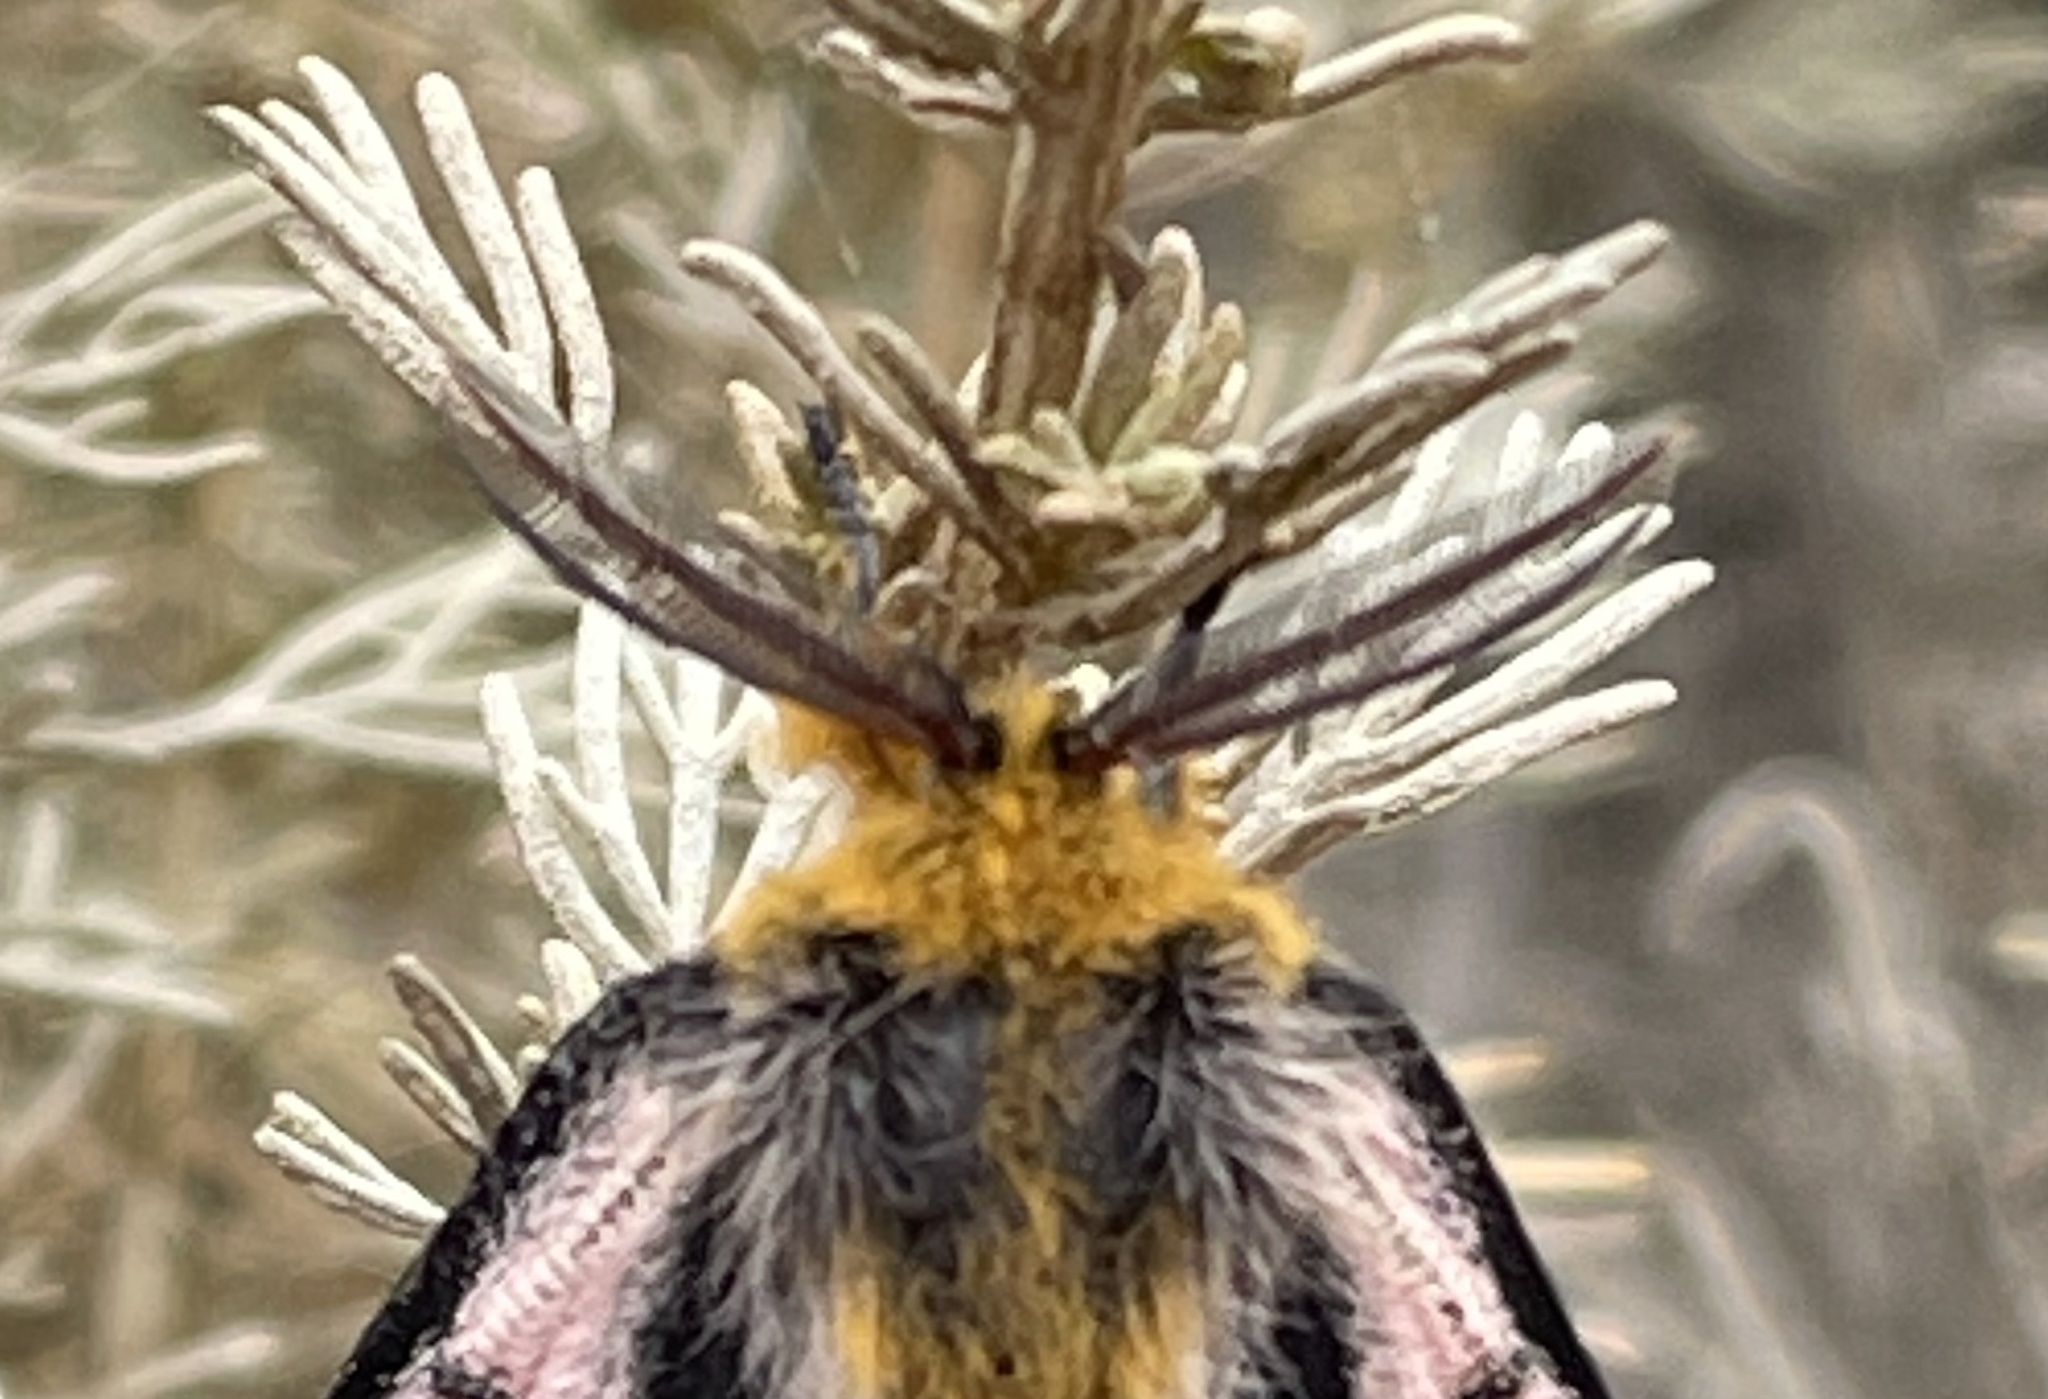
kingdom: Animalia
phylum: Arthropoda
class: Insecta
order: Lepidoptera
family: Saturniidae
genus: Hemileuca
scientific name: Hemileuca eglanterina
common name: Western sheepmoth
